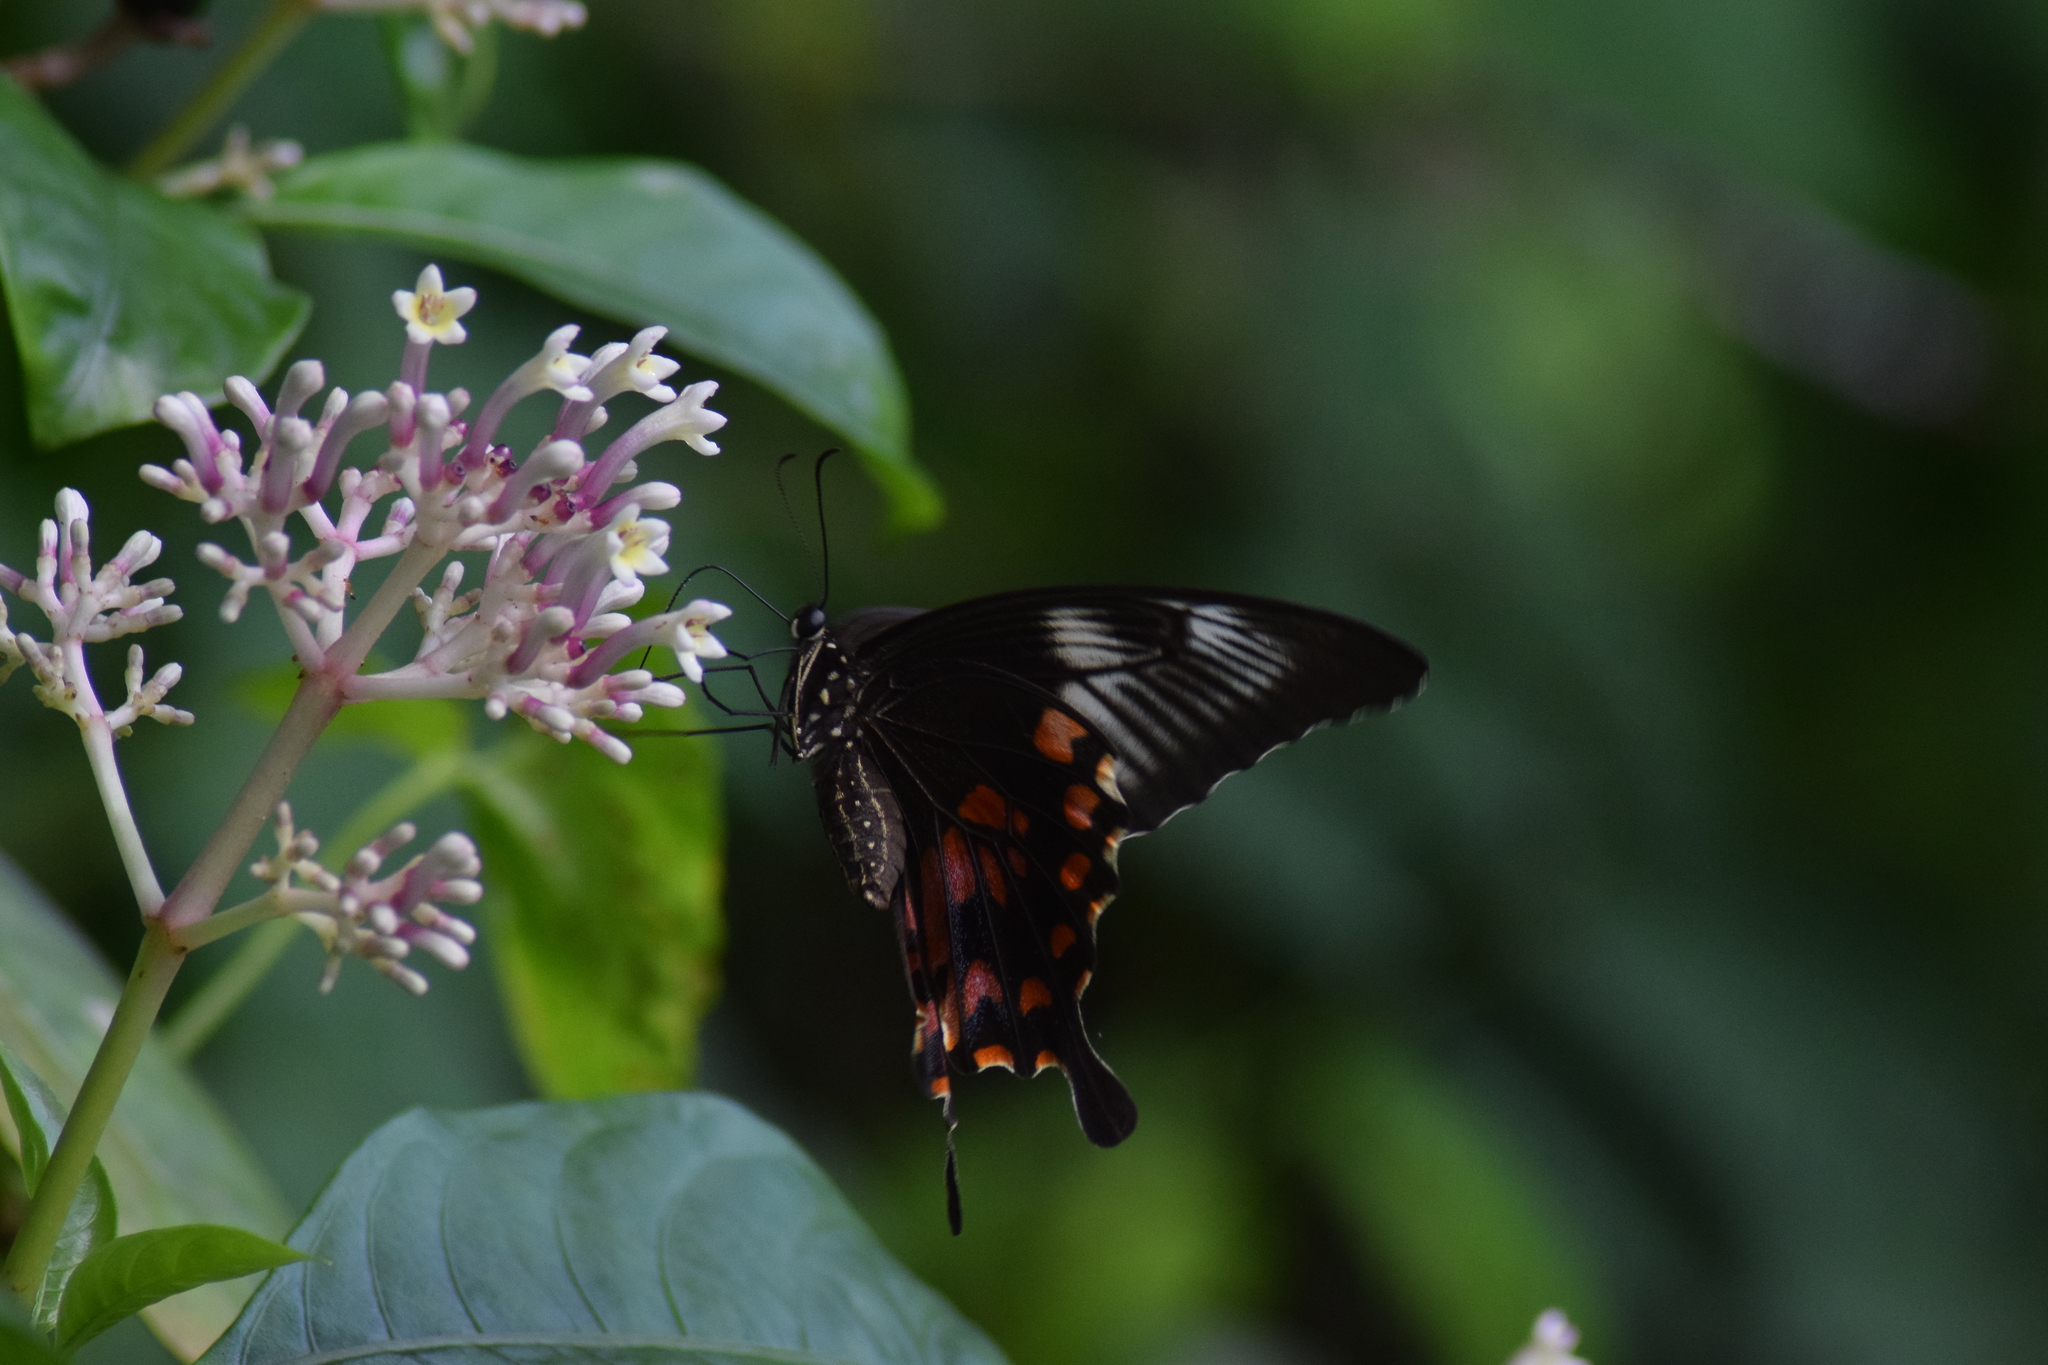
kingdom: Animalia
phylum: Arthropoda
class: Insecta
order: Lepidoptera
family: Papilionidae
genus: Papilio
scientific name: Papilio polytes
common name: Common mormon
